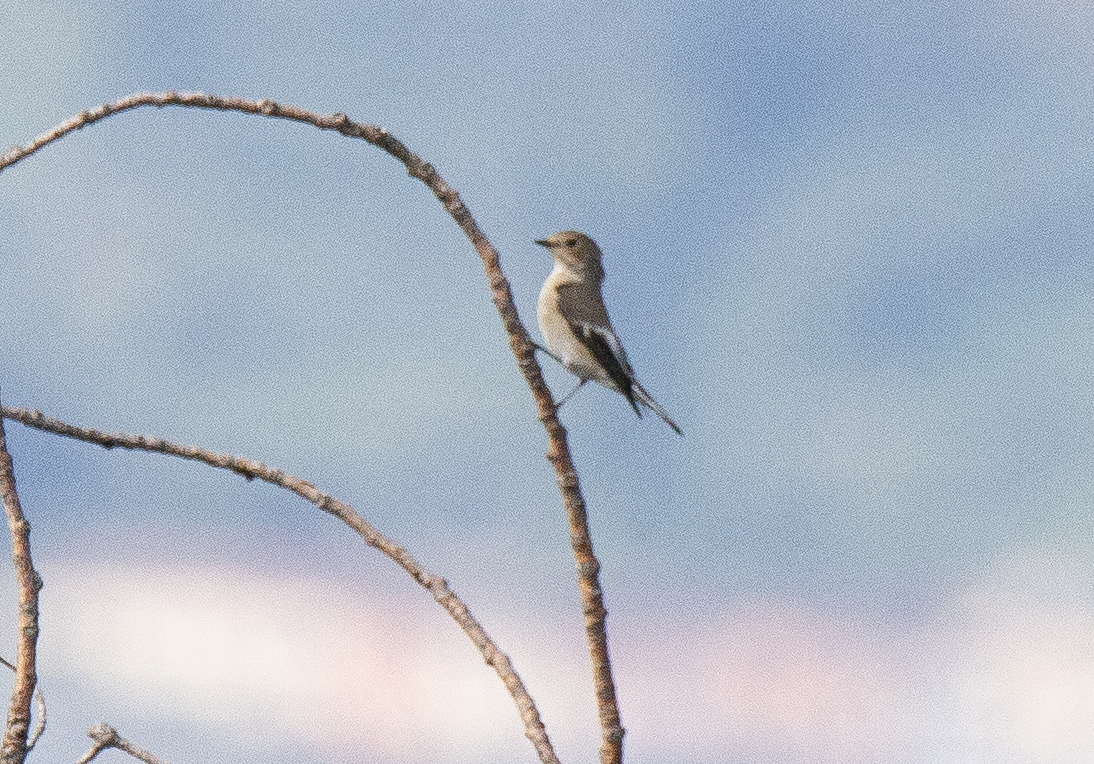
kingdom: Animalia
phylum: Chordata
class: Aves
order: Passeriformes
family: Muscicapidae
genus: Ficedula
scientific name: Ficedula hypoleuca
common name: European pied flycatcher
